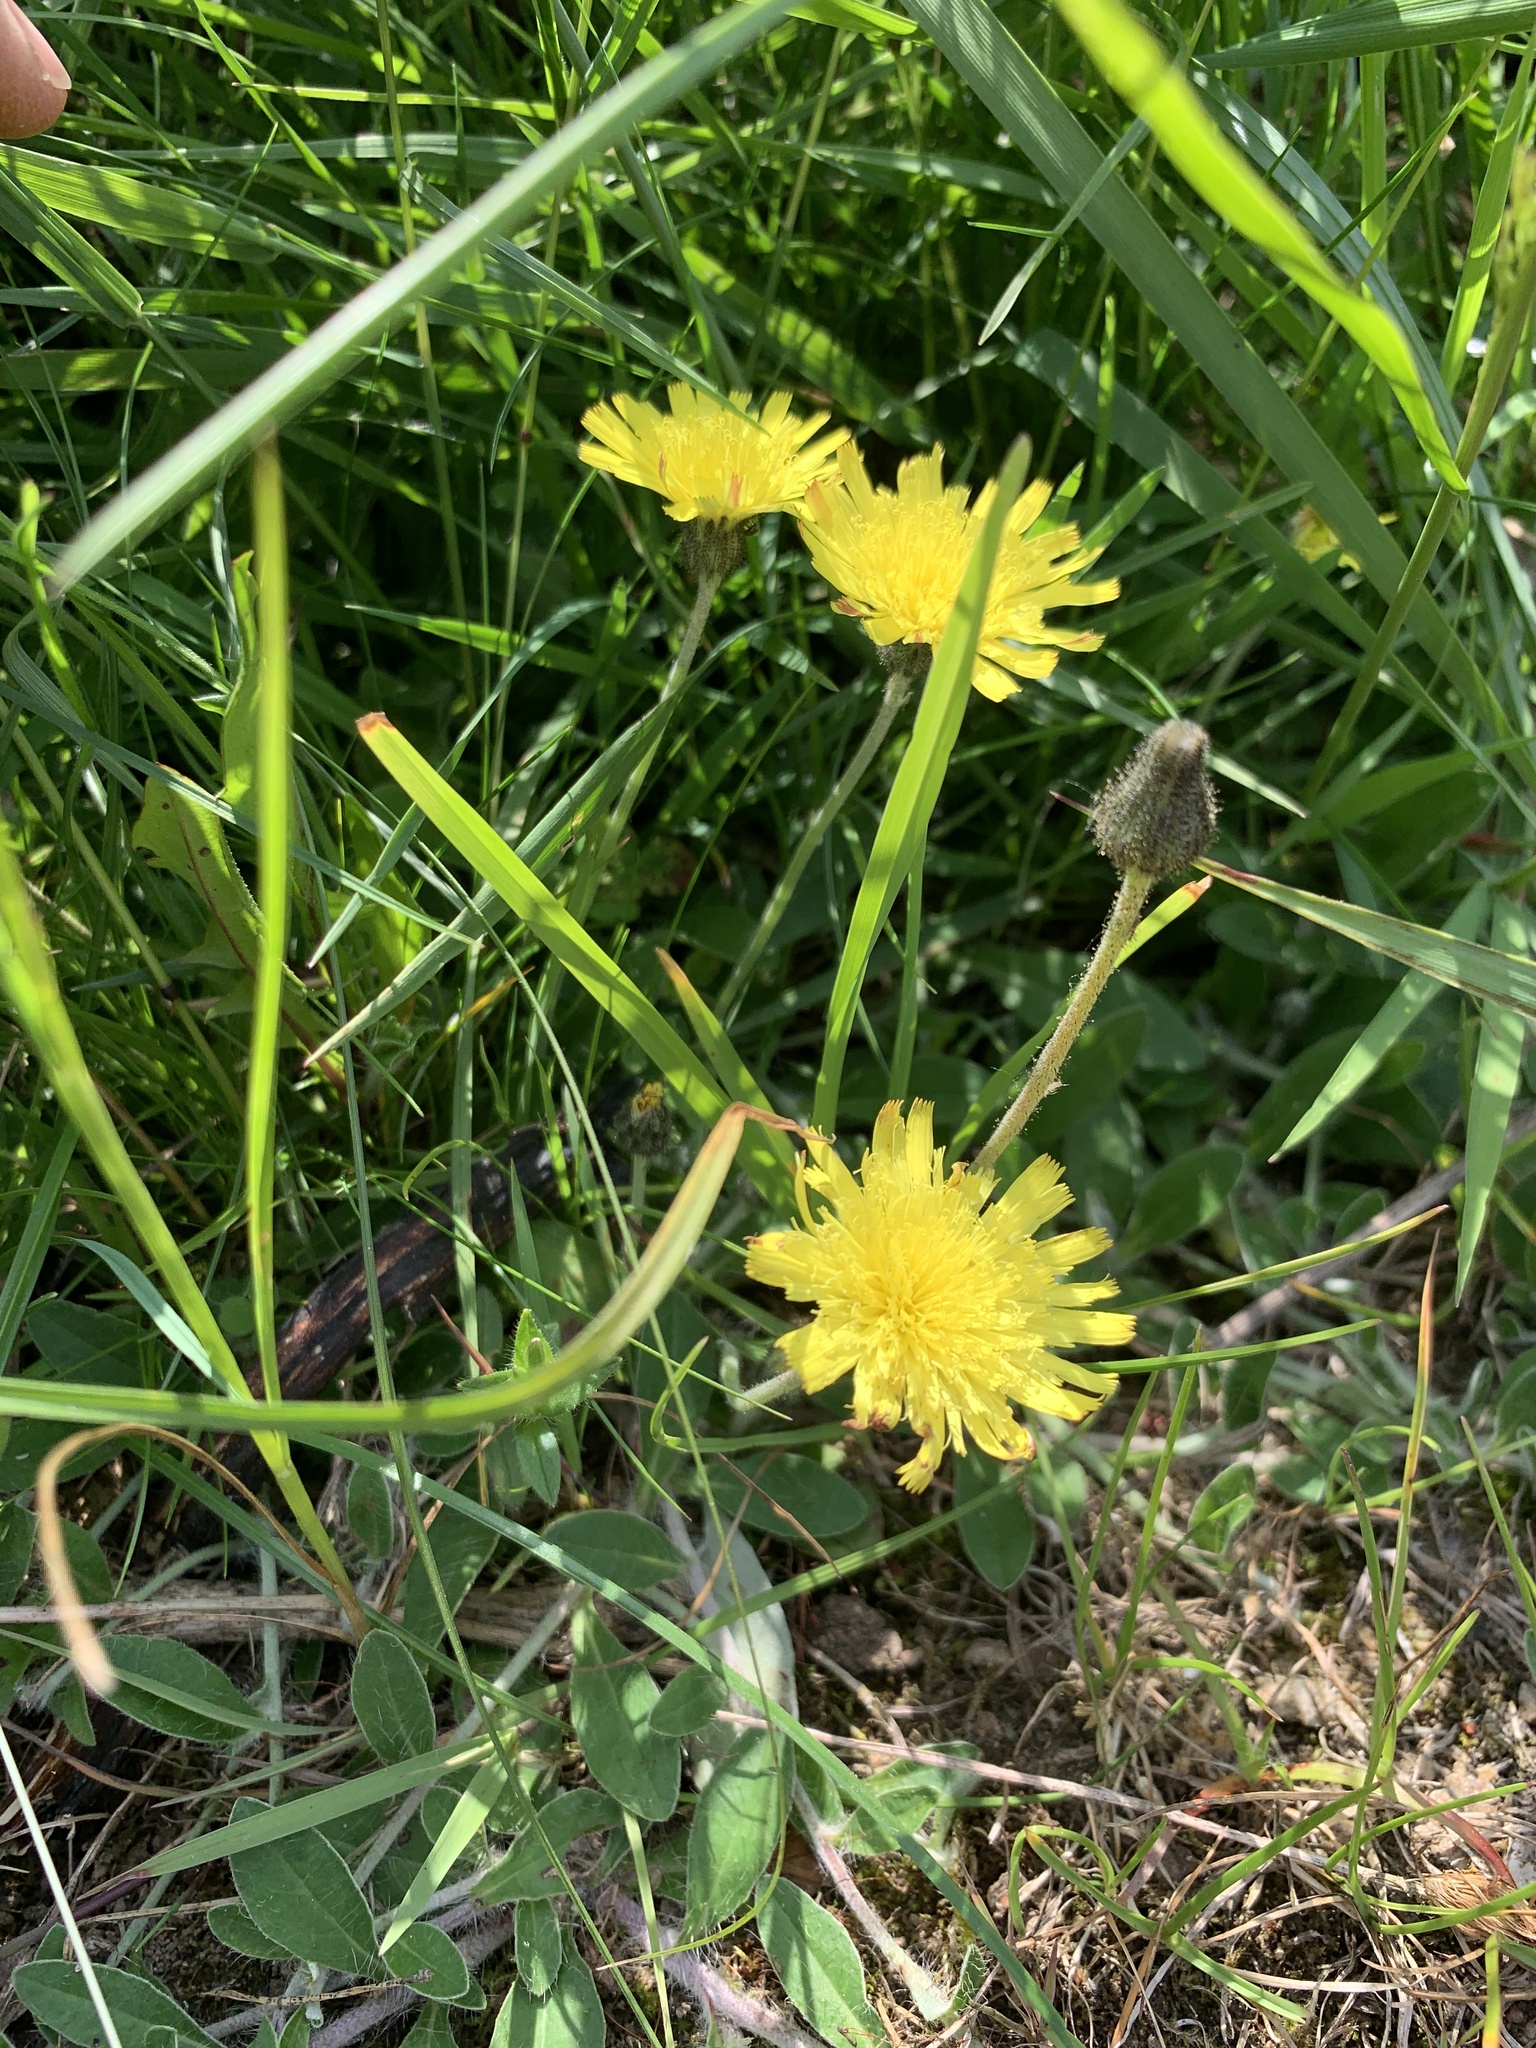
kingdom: Plantae
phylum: Tracheophyta
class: Magnoliopsida
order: Asterales
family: Asteraceae
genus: Pilosella
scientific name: Pilosella officinarum
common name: Mouse-ear hawkweed
